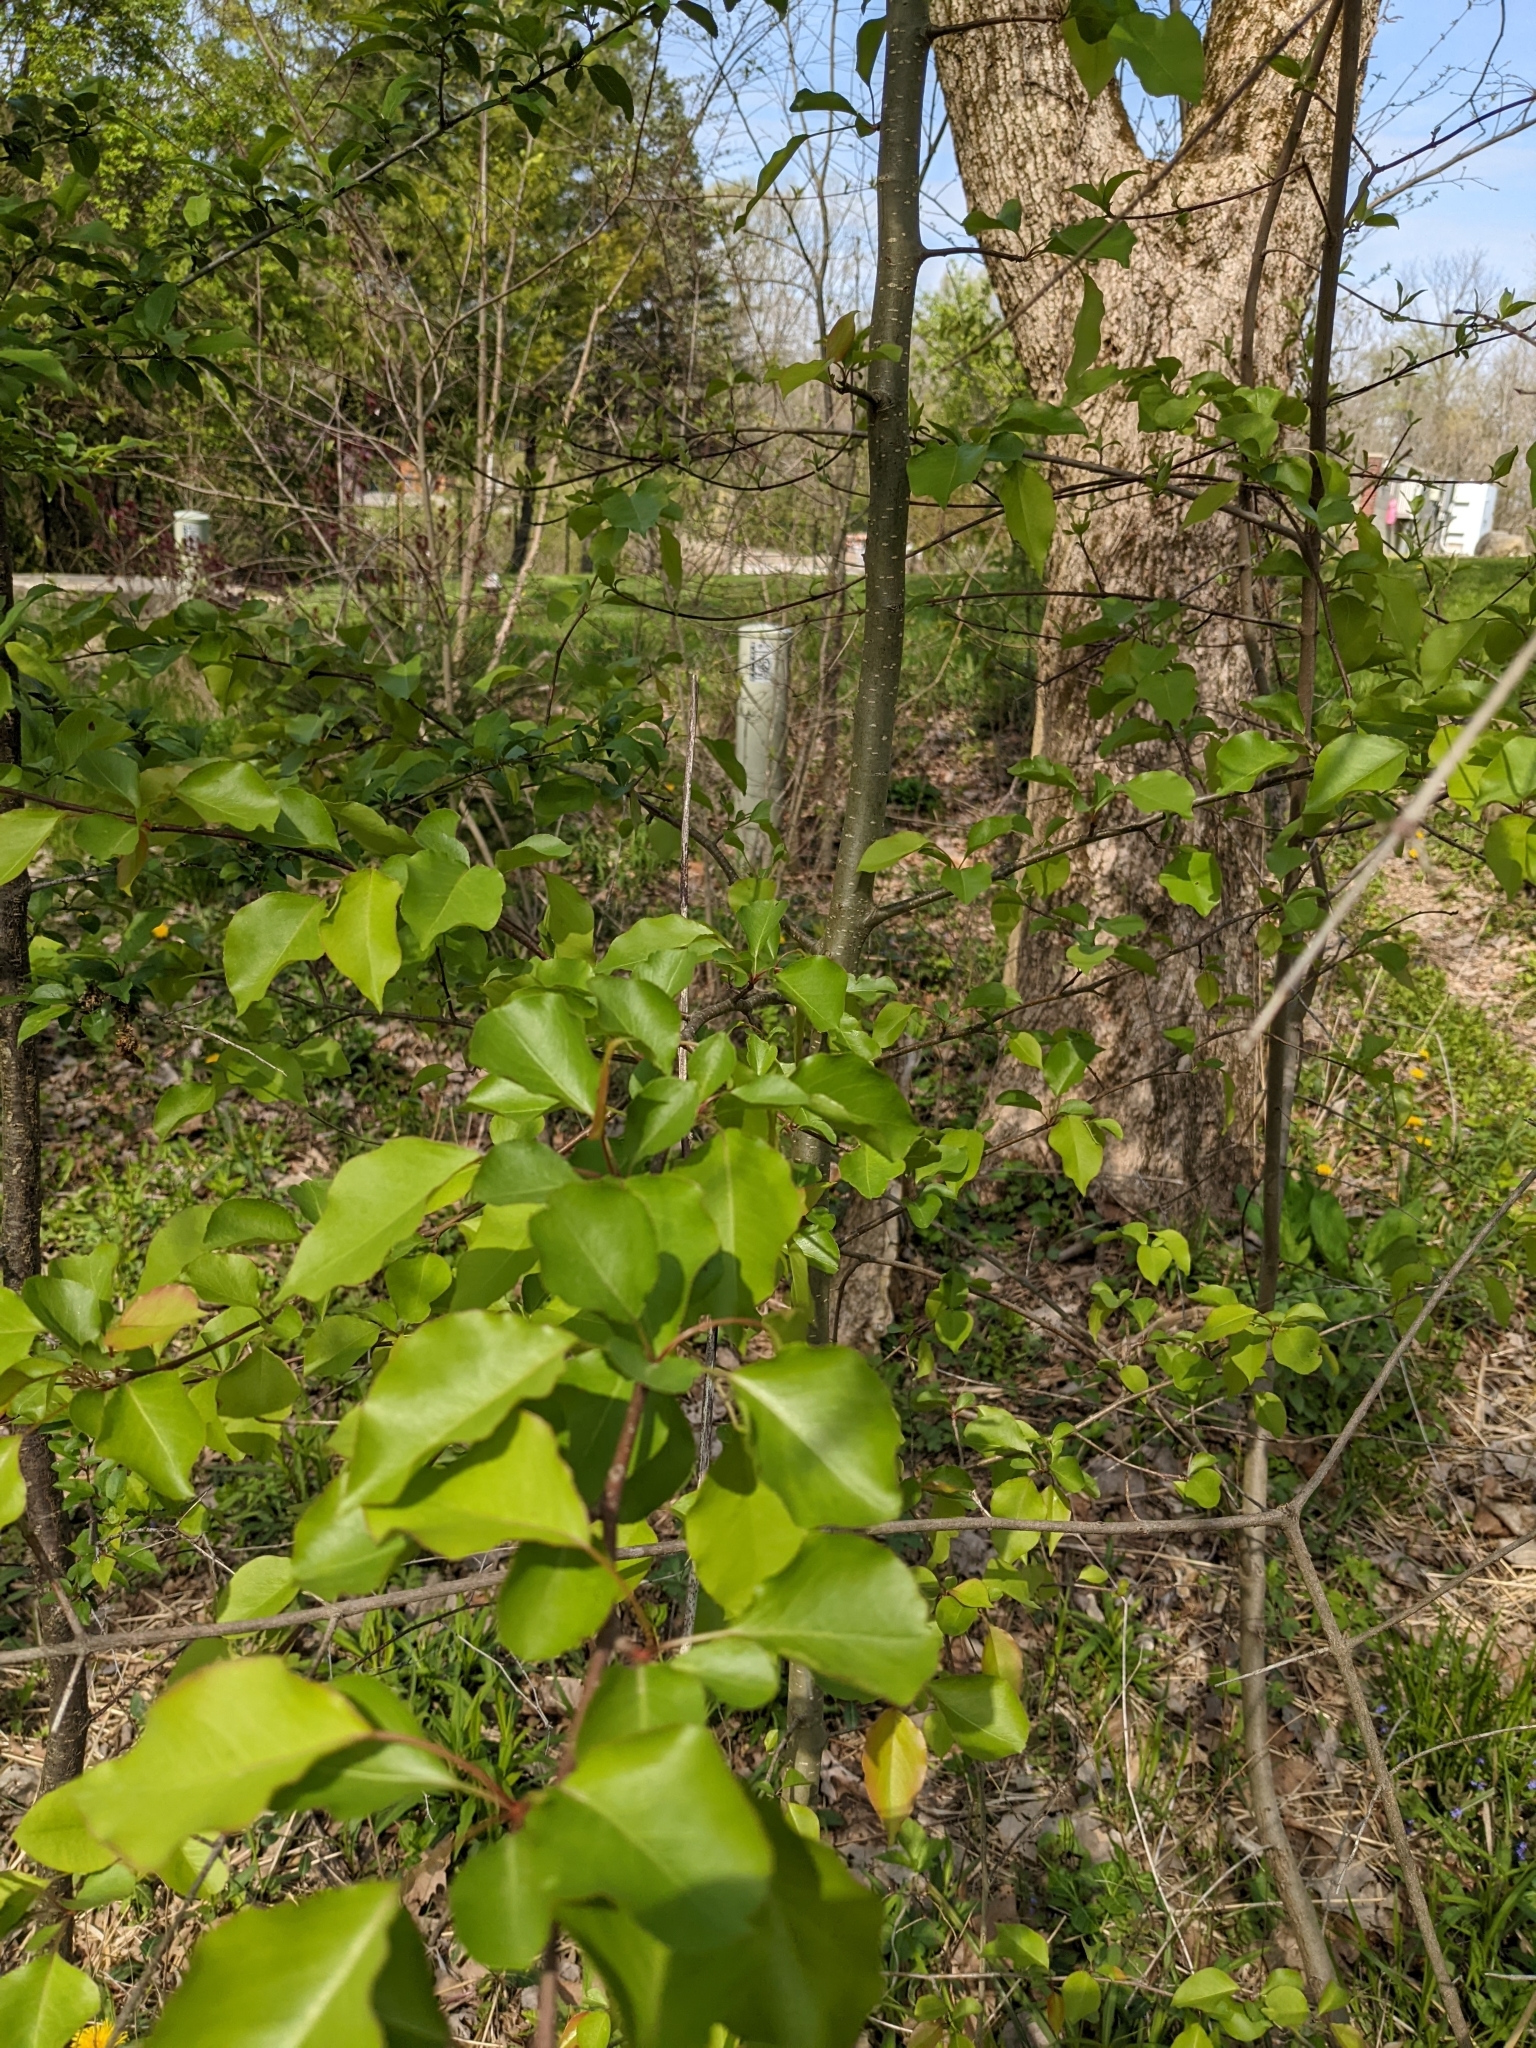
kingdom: Plantae
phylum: Tracheophyta
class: Magnoliopsida
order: Rosales
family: Rosaceae
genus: Pyrus
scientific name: Pyrus calleryana
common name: Callery pear
